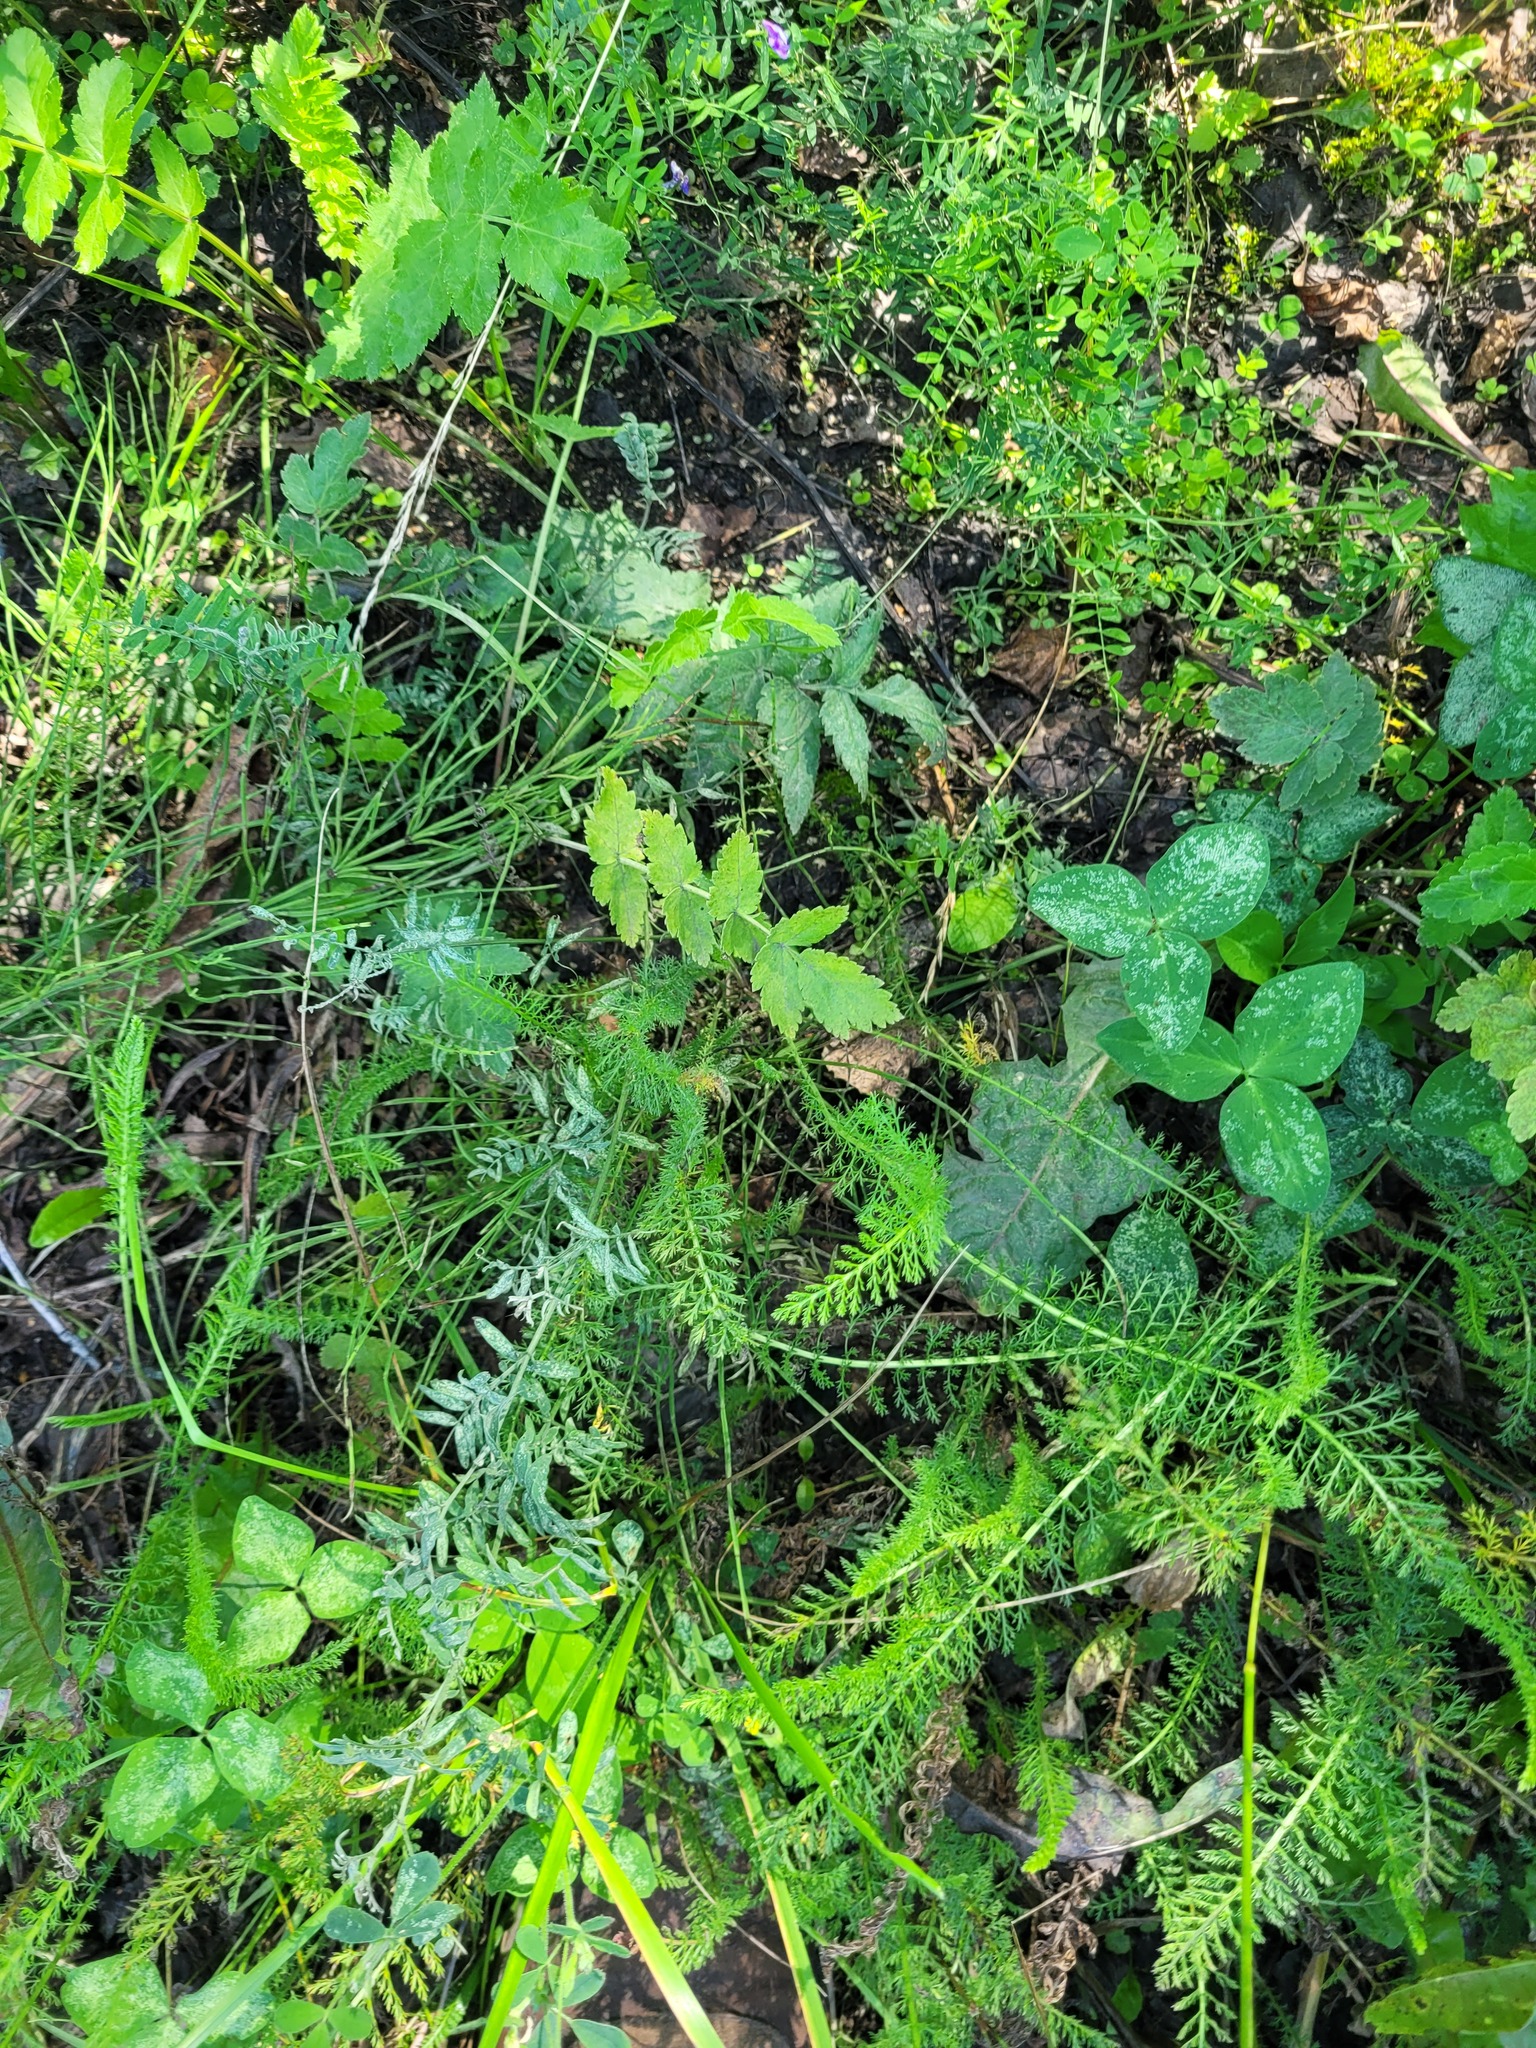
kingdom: Plantae
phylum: Tracheophyta
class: Magnoliopsida
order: Asterales
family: Asteraceae
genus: Achillea
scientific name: Achillea millefolium
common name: Yarrow
